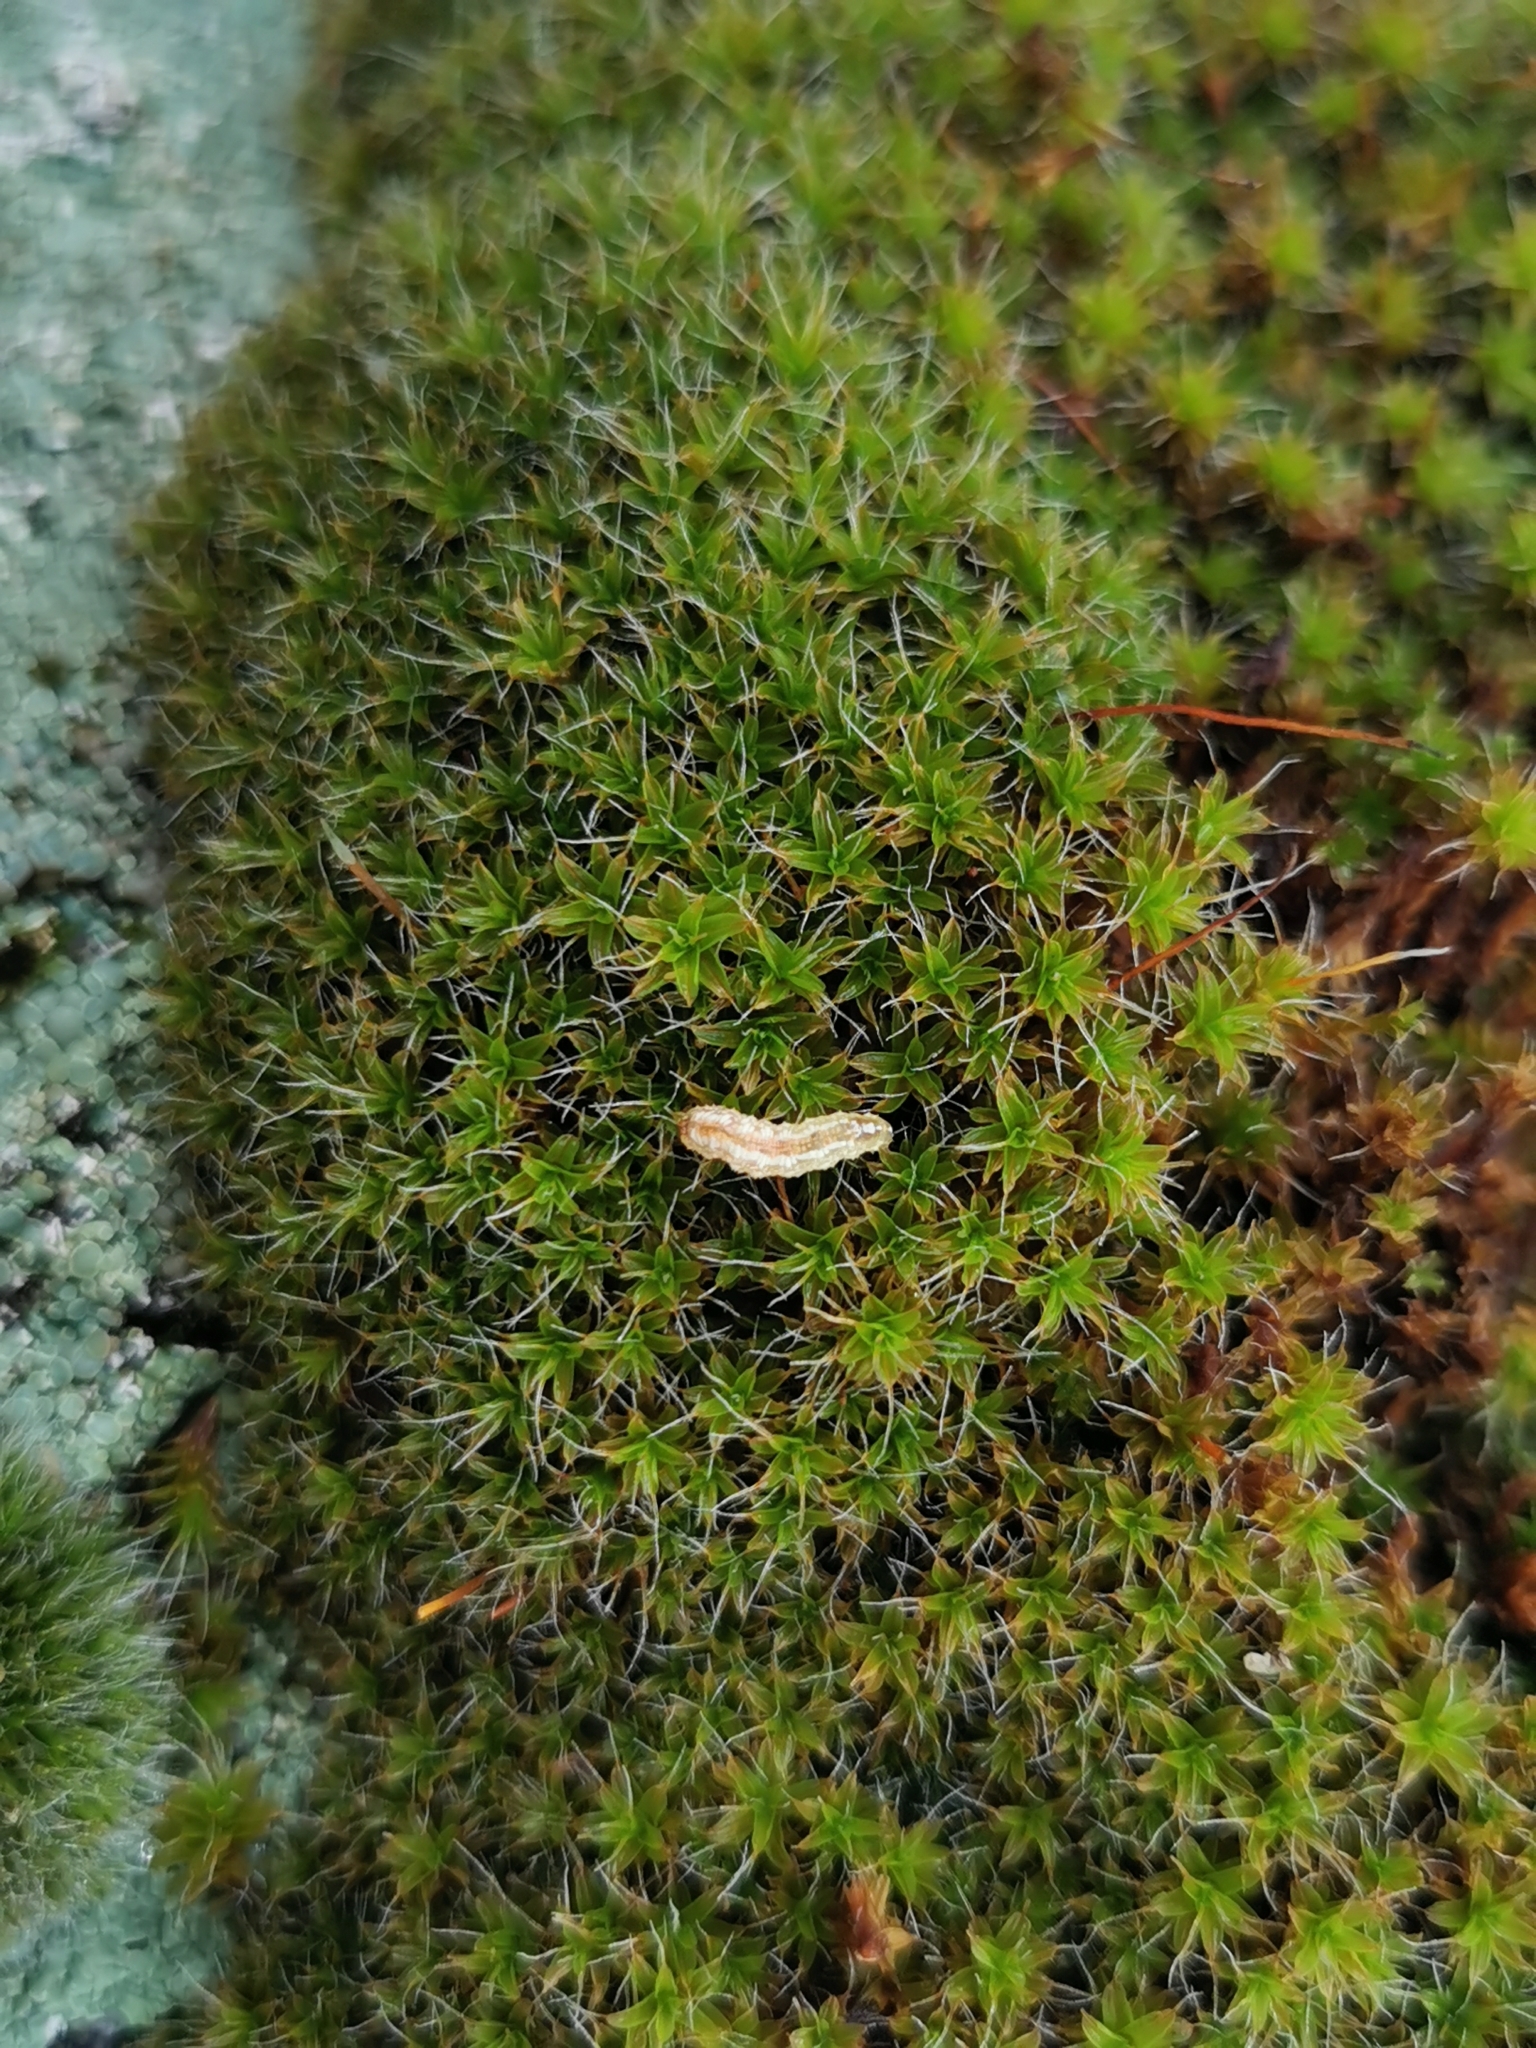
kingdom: Animalia
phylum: Arthropoda
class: Insecta
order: Diptera
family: Syrphidae
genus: Syrphus
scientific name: Syrphus
